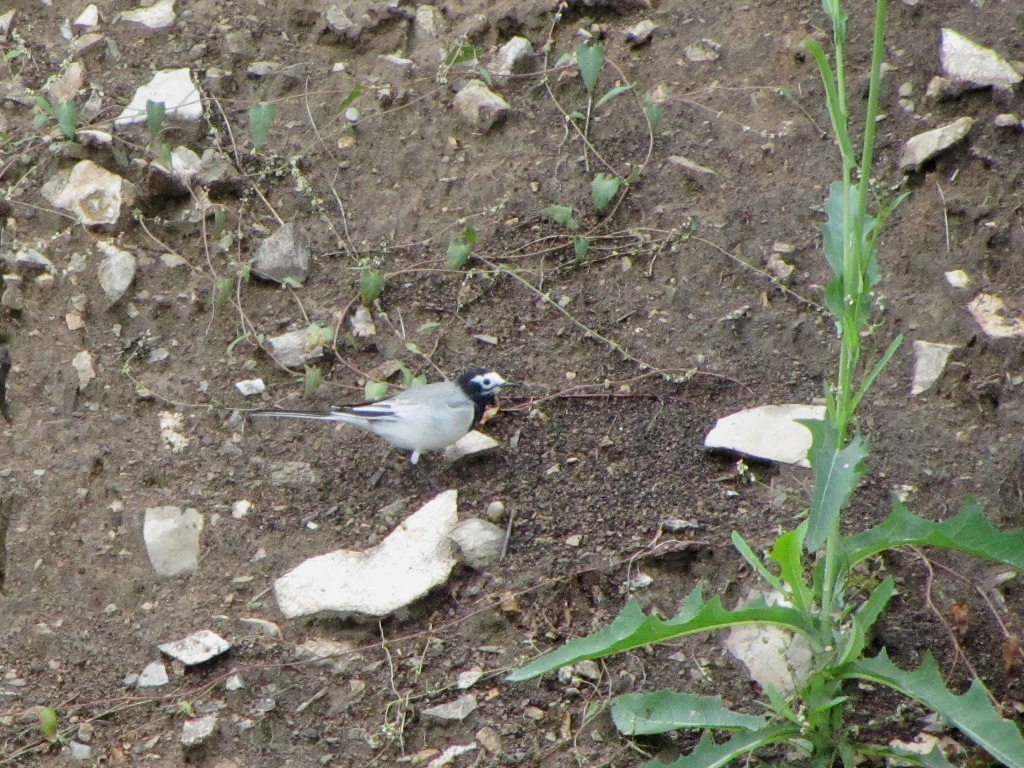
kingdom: Animalia
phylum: Chordata
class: Aves
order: Passeriformes
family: Motacillidae
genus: Motacilla
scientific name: Motacilla alba
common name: White wagtail
